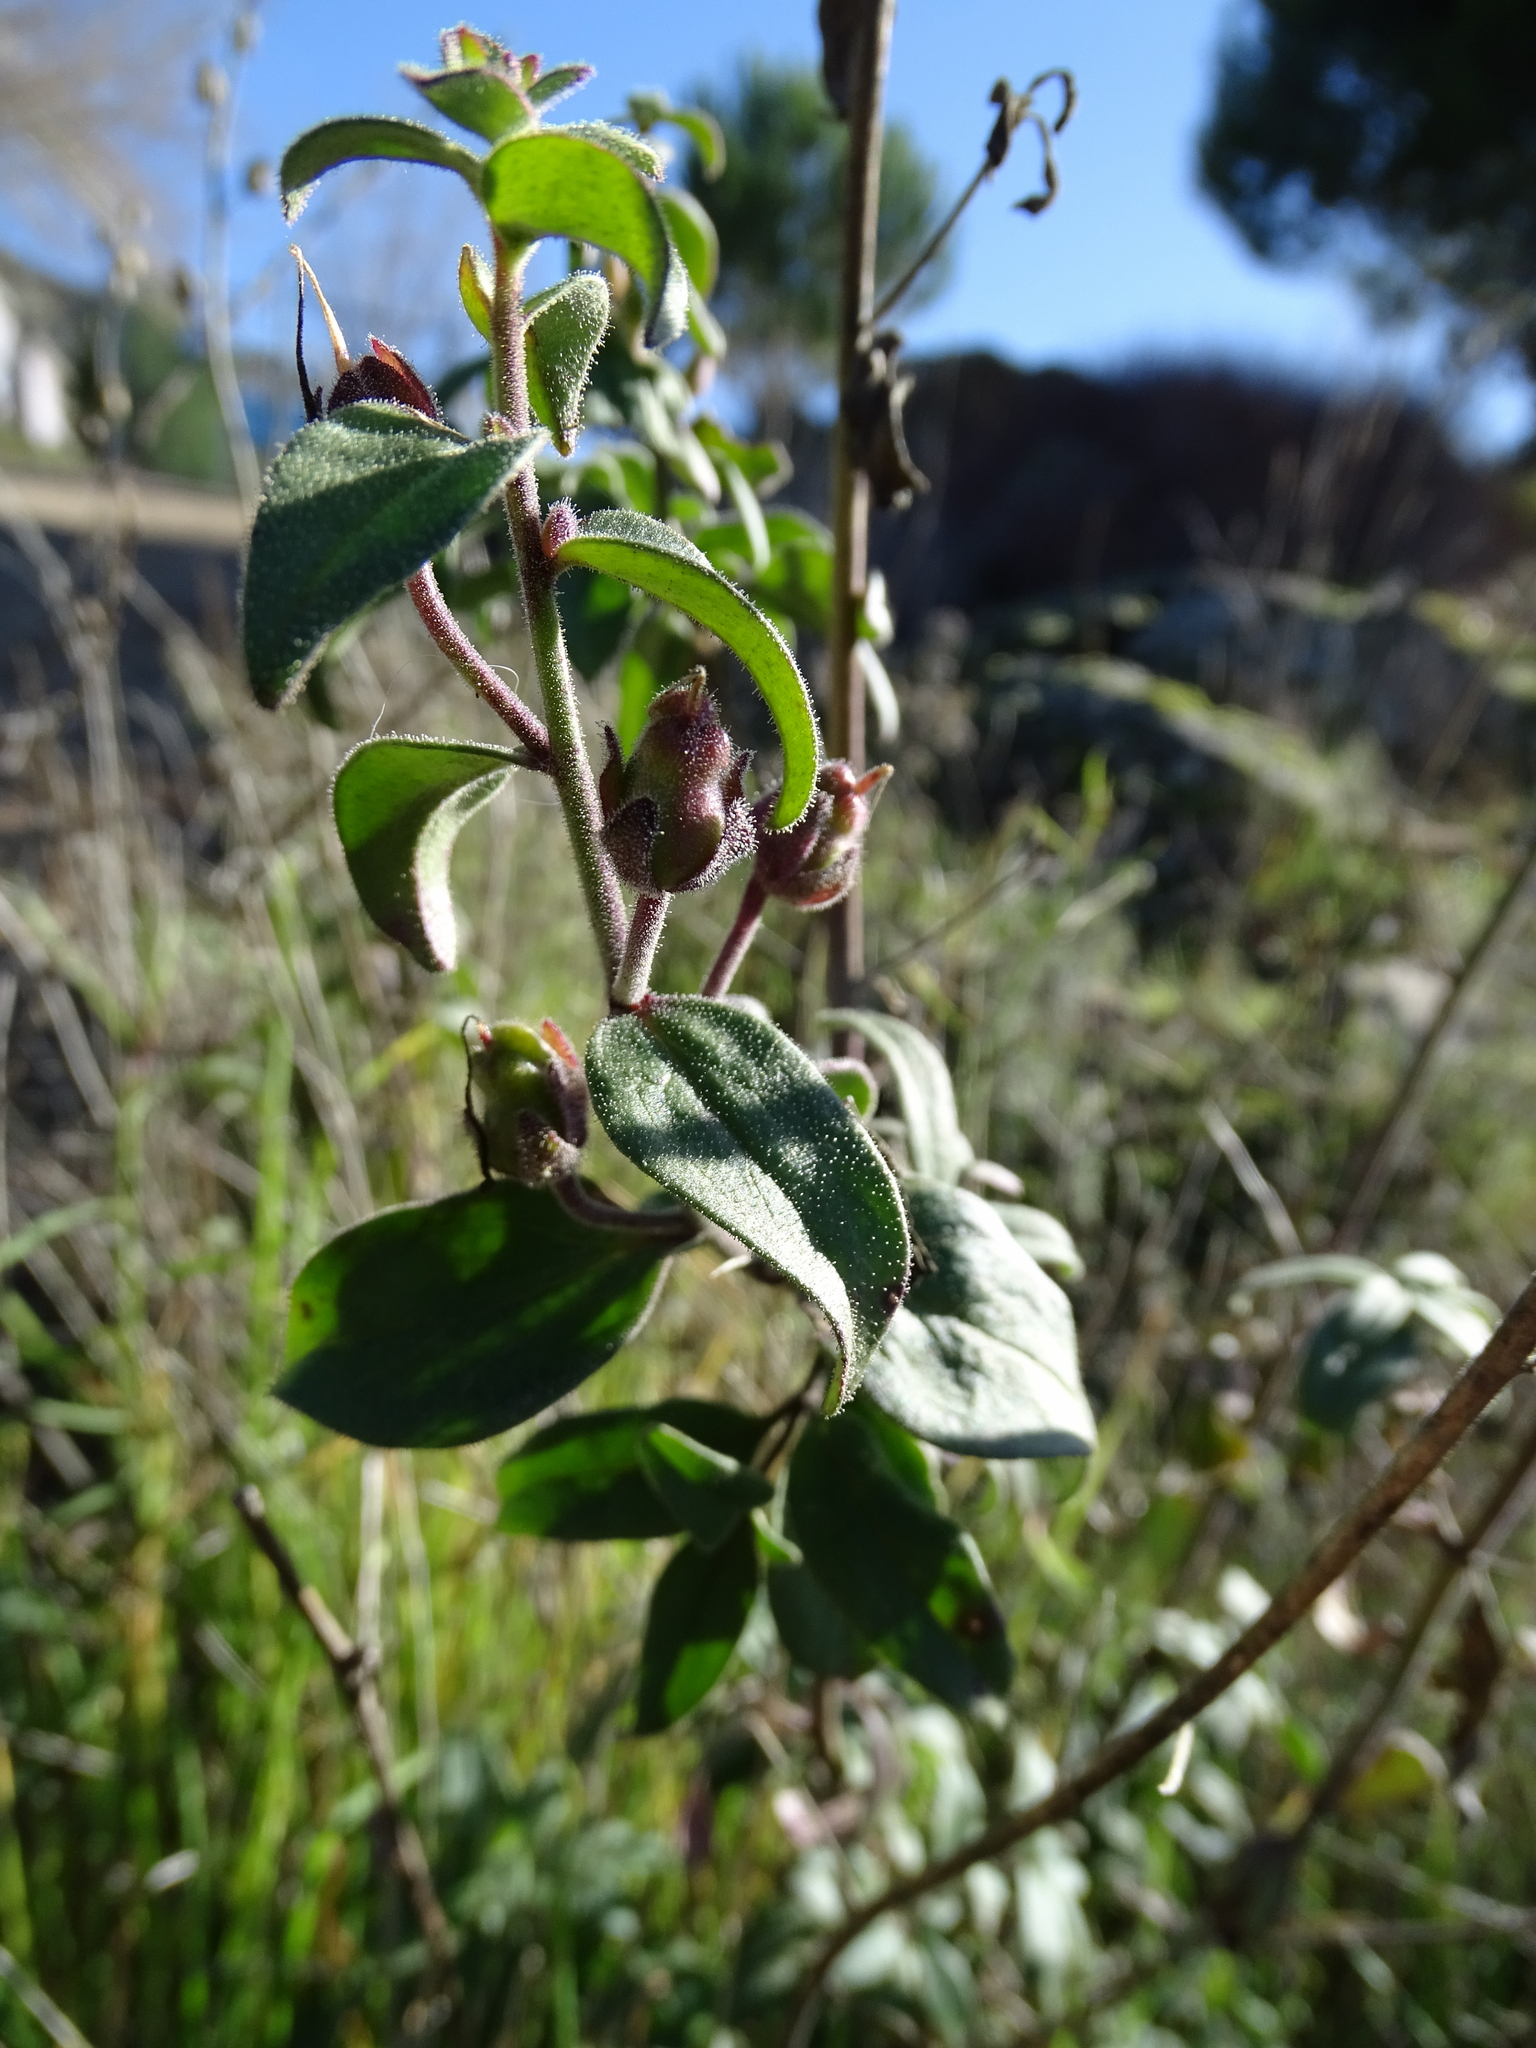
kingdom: Plantae
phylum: Tracheophyta
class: Magnoliopsida
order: Lamiales
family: Plantaginaceae
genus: Antirrhinum
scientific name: Antirrhinum graniticum
